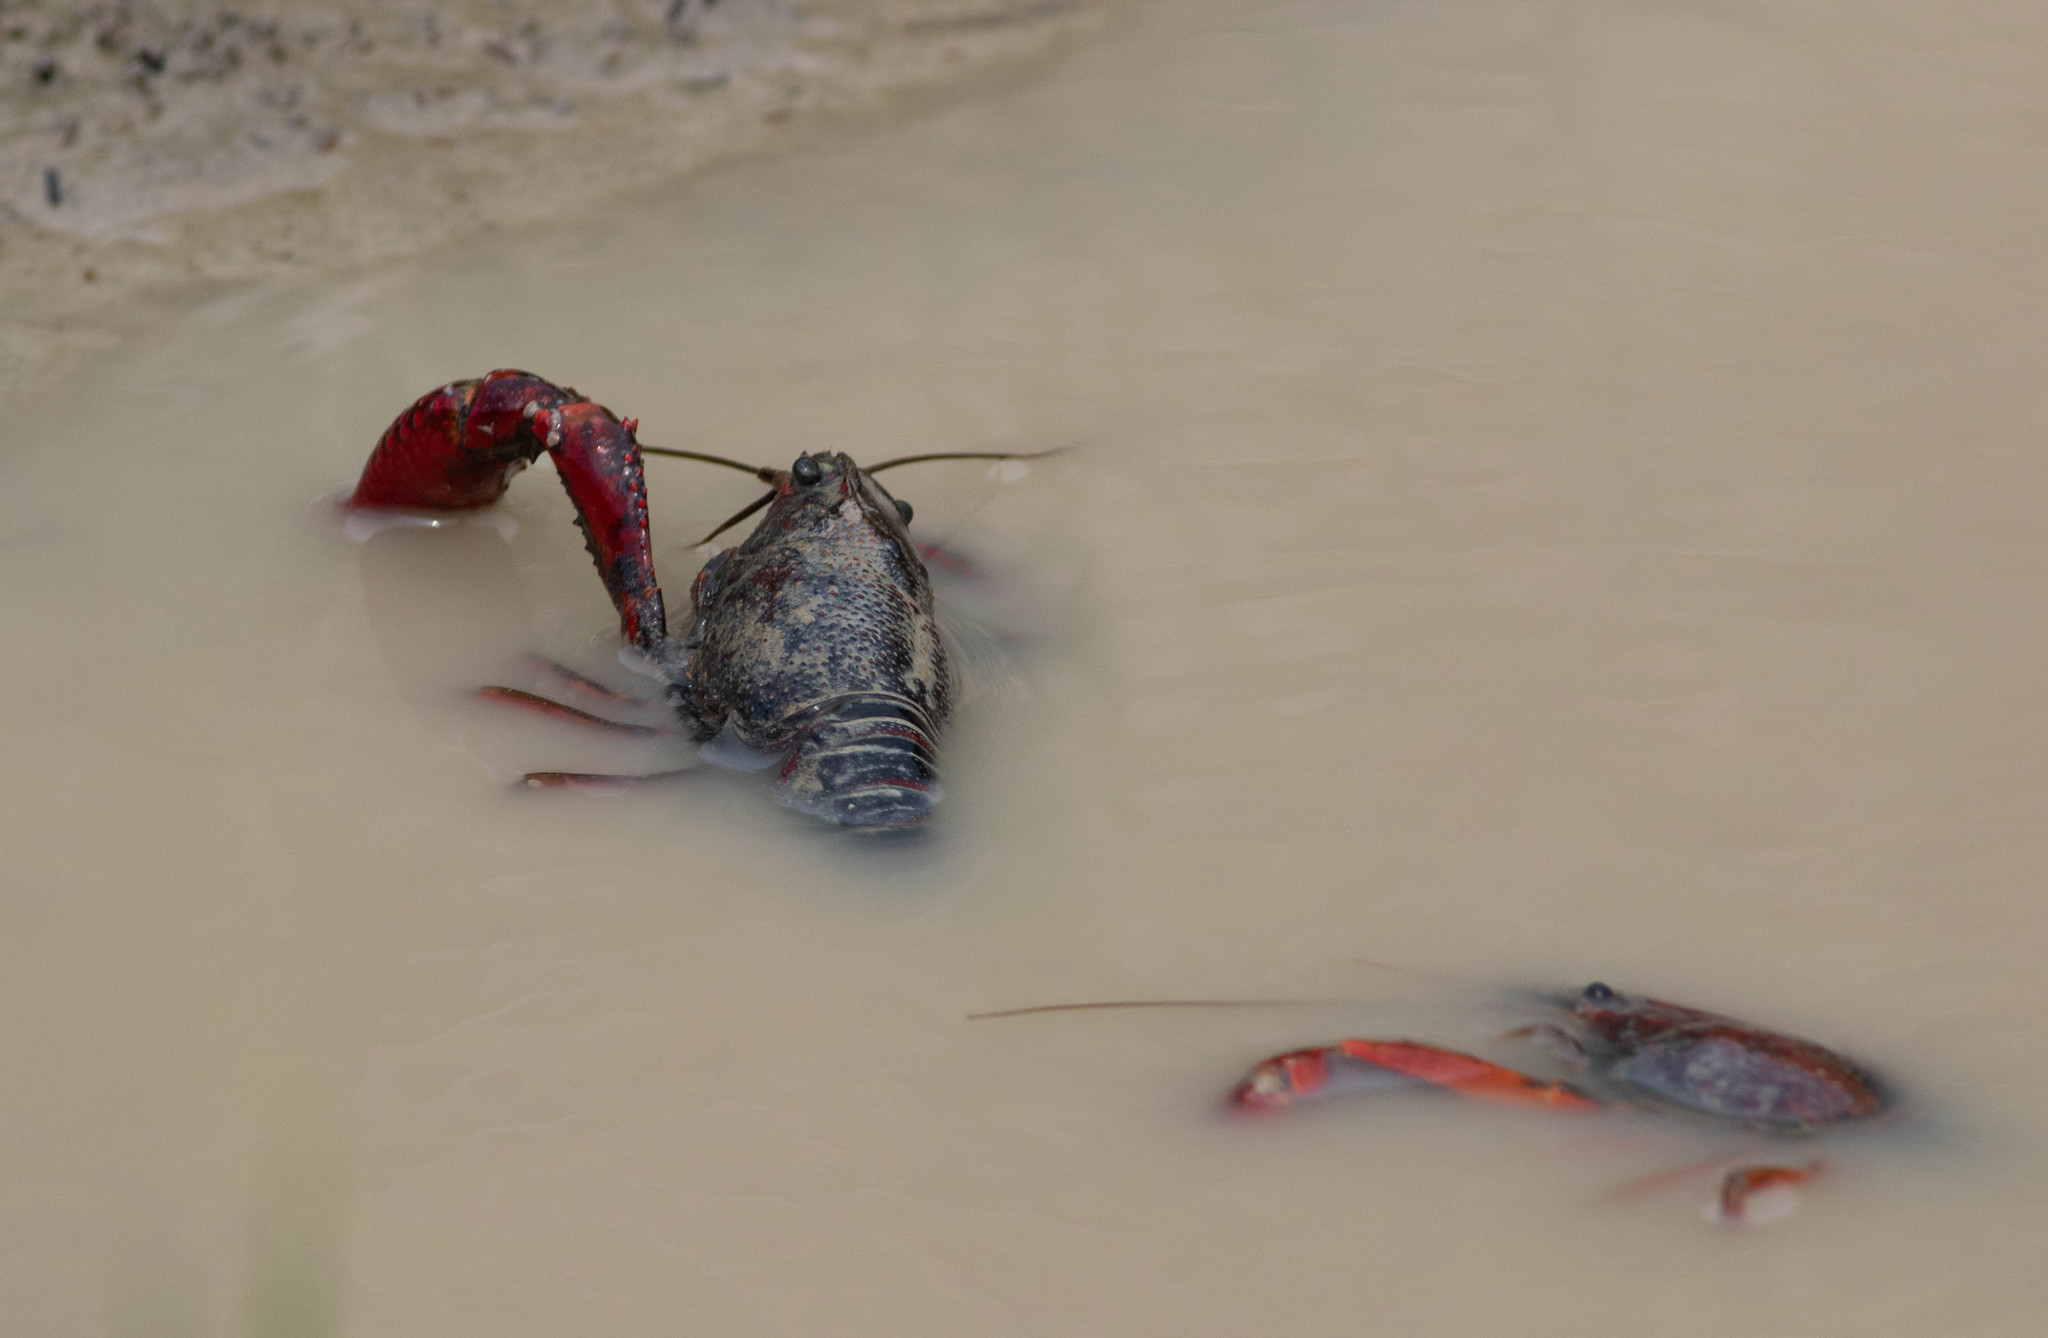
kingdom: Animalia
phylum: Arthropoda
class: Malacostraca
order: Decapoda
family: Cambaridae
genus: Procambarus
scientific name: Procambarus clarkii
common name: Red swamp crayfish
